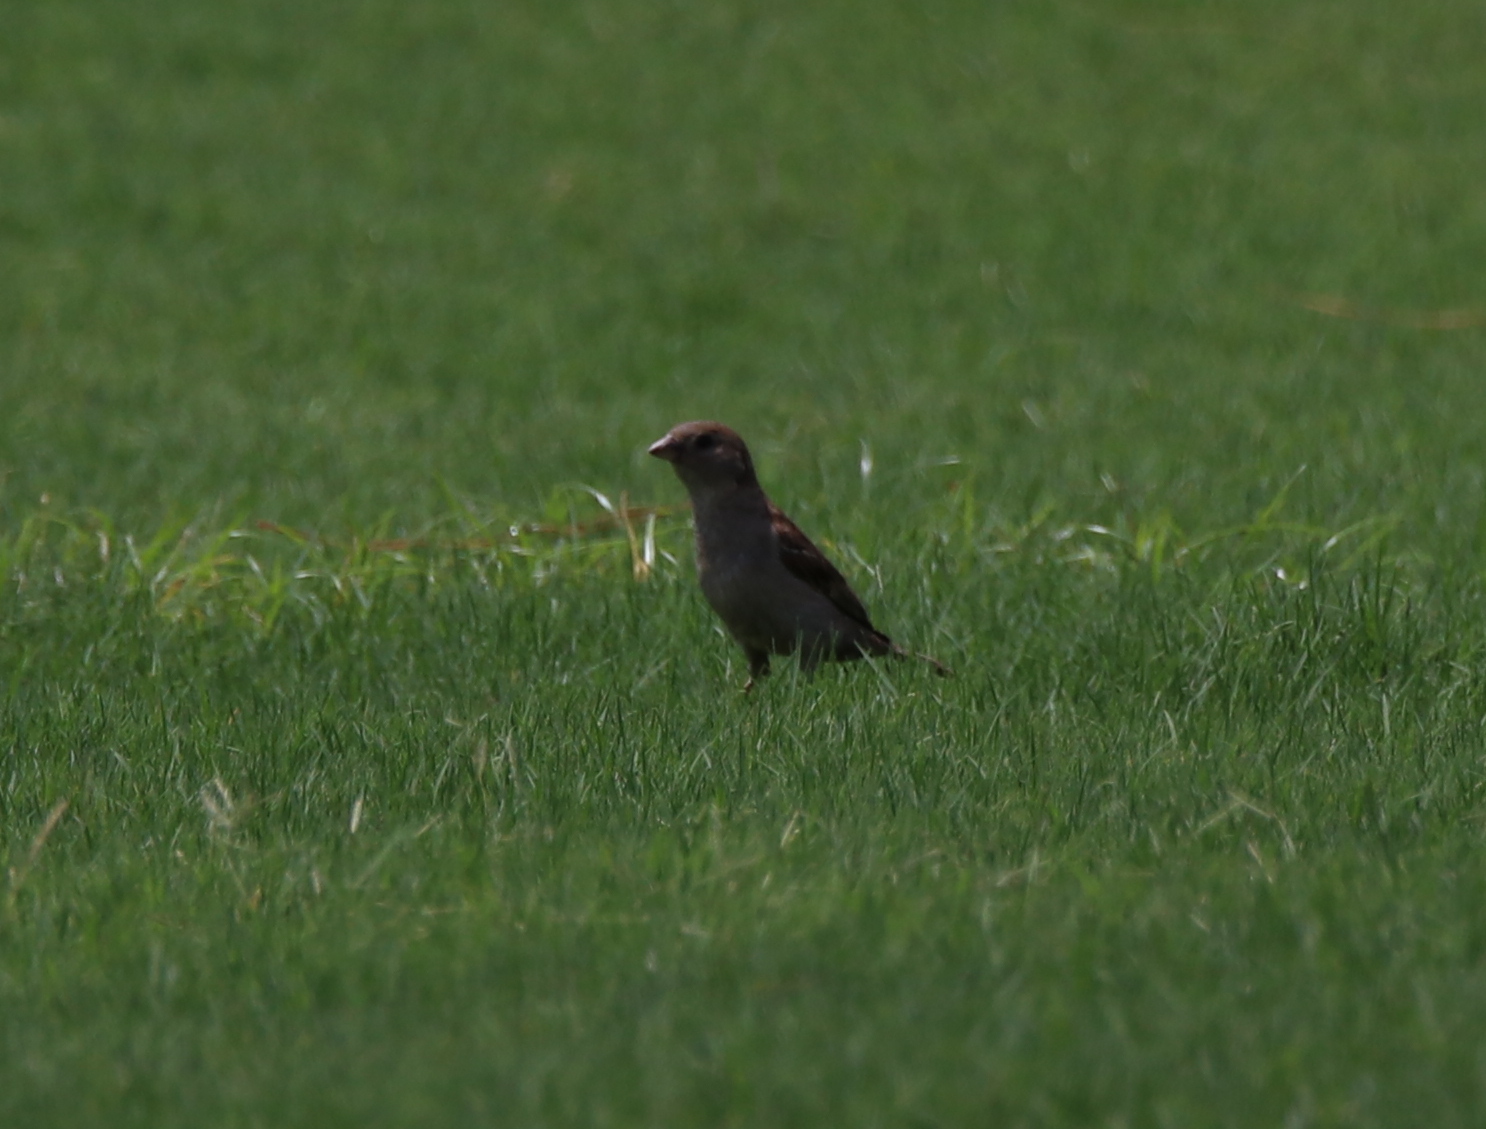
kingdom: Animalia
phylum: Chordata
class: Aves
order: Passeriformes
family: Passeridae
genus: Passer
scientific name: Passer domesticus
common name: House sparrow
